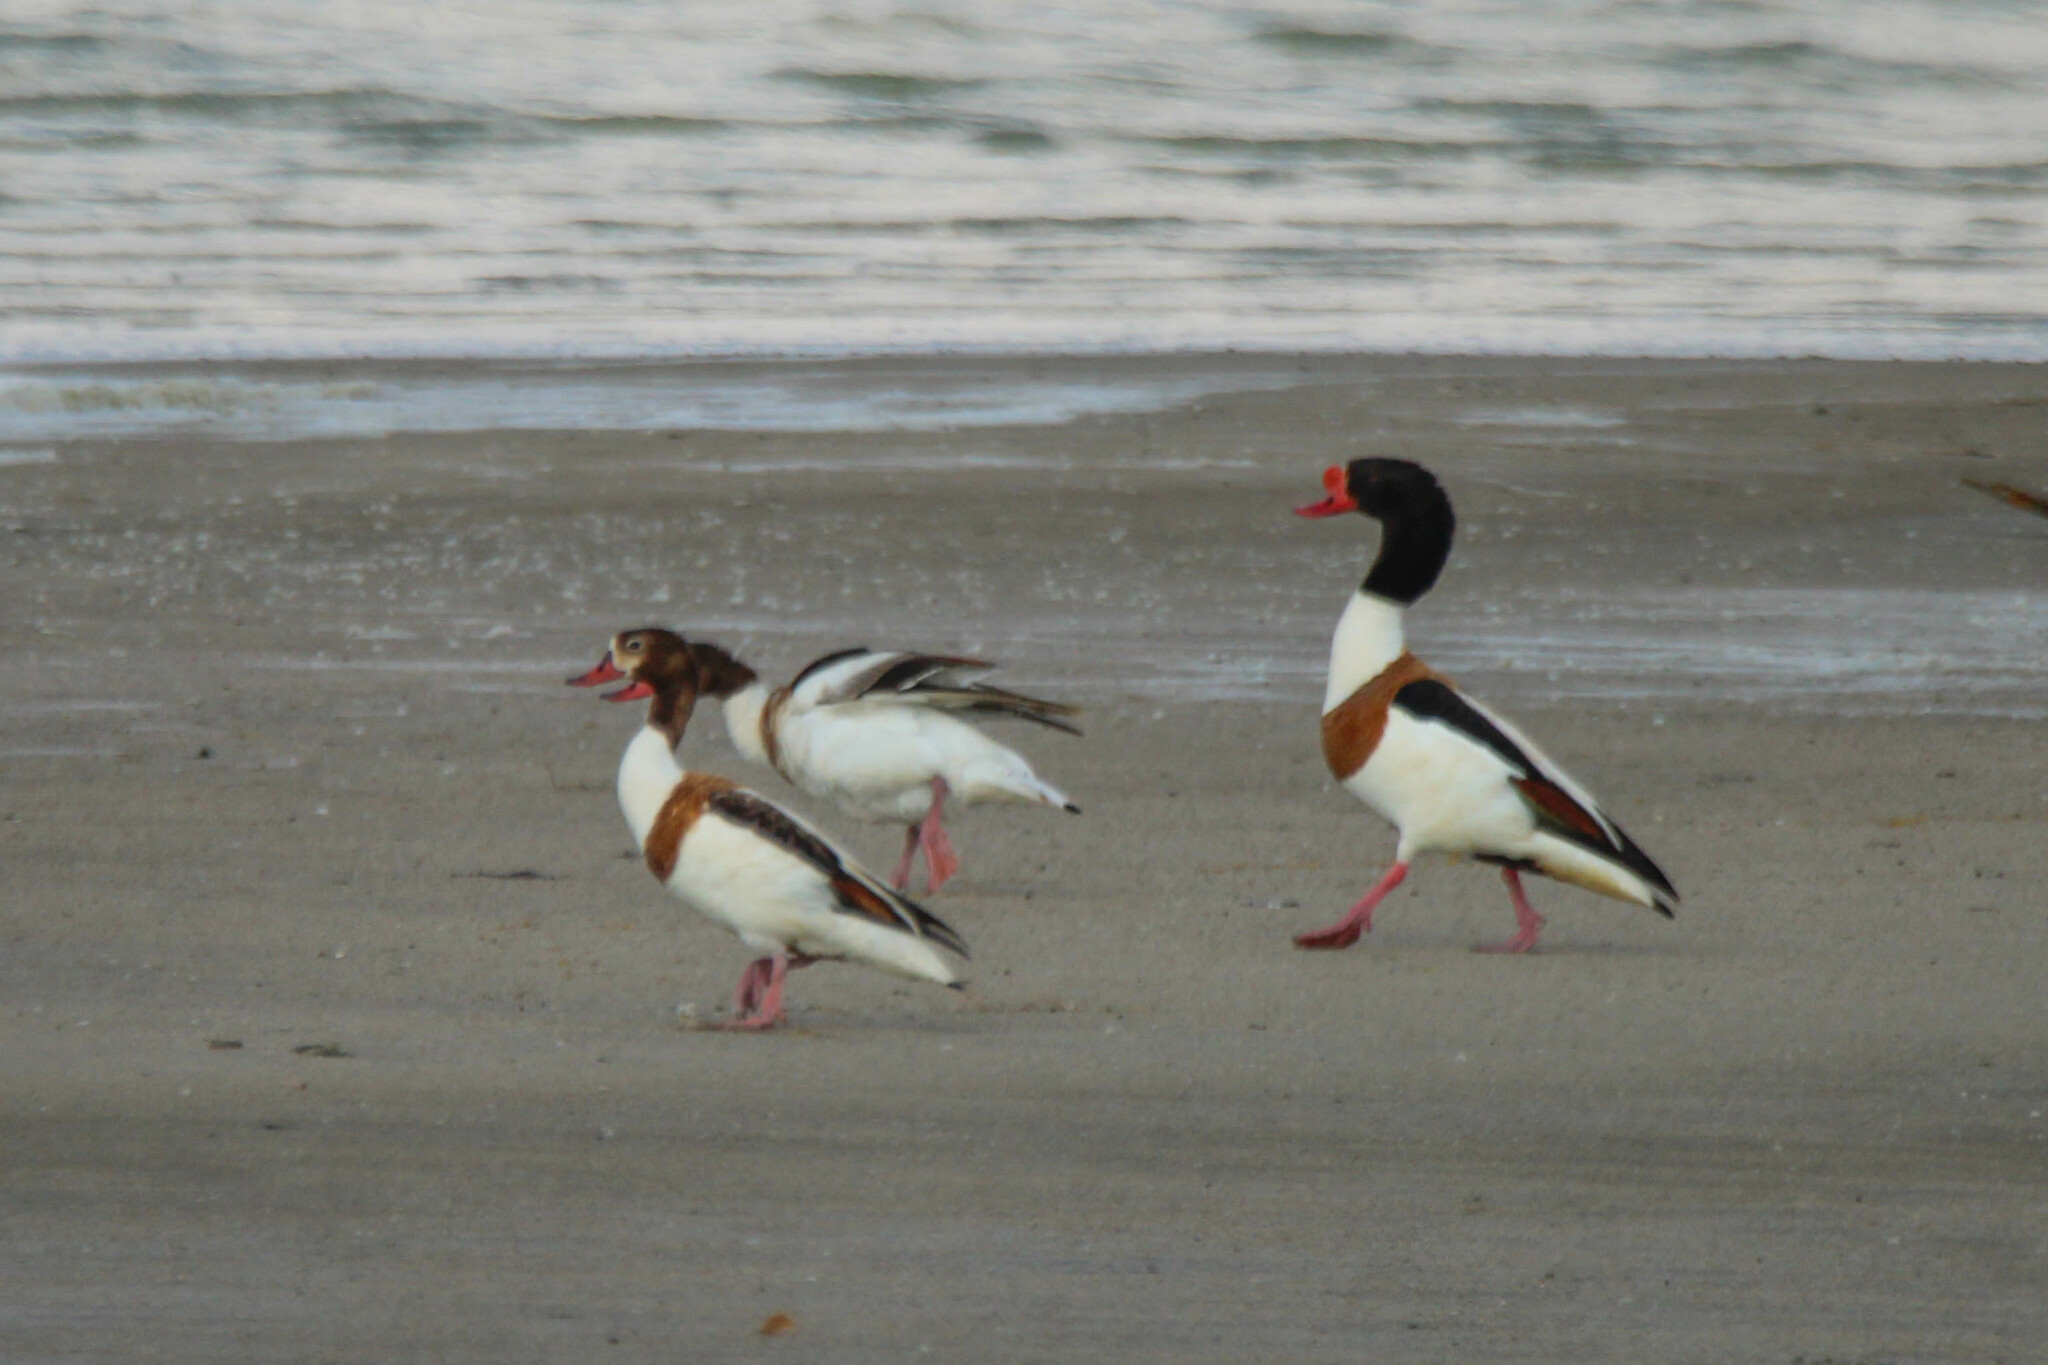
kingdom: Animalia
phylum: Chordata
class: Aves
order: Anseriformes
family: Anatidae
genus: Tadorna
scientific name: Tadorna tadorna
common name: Common shelduck
